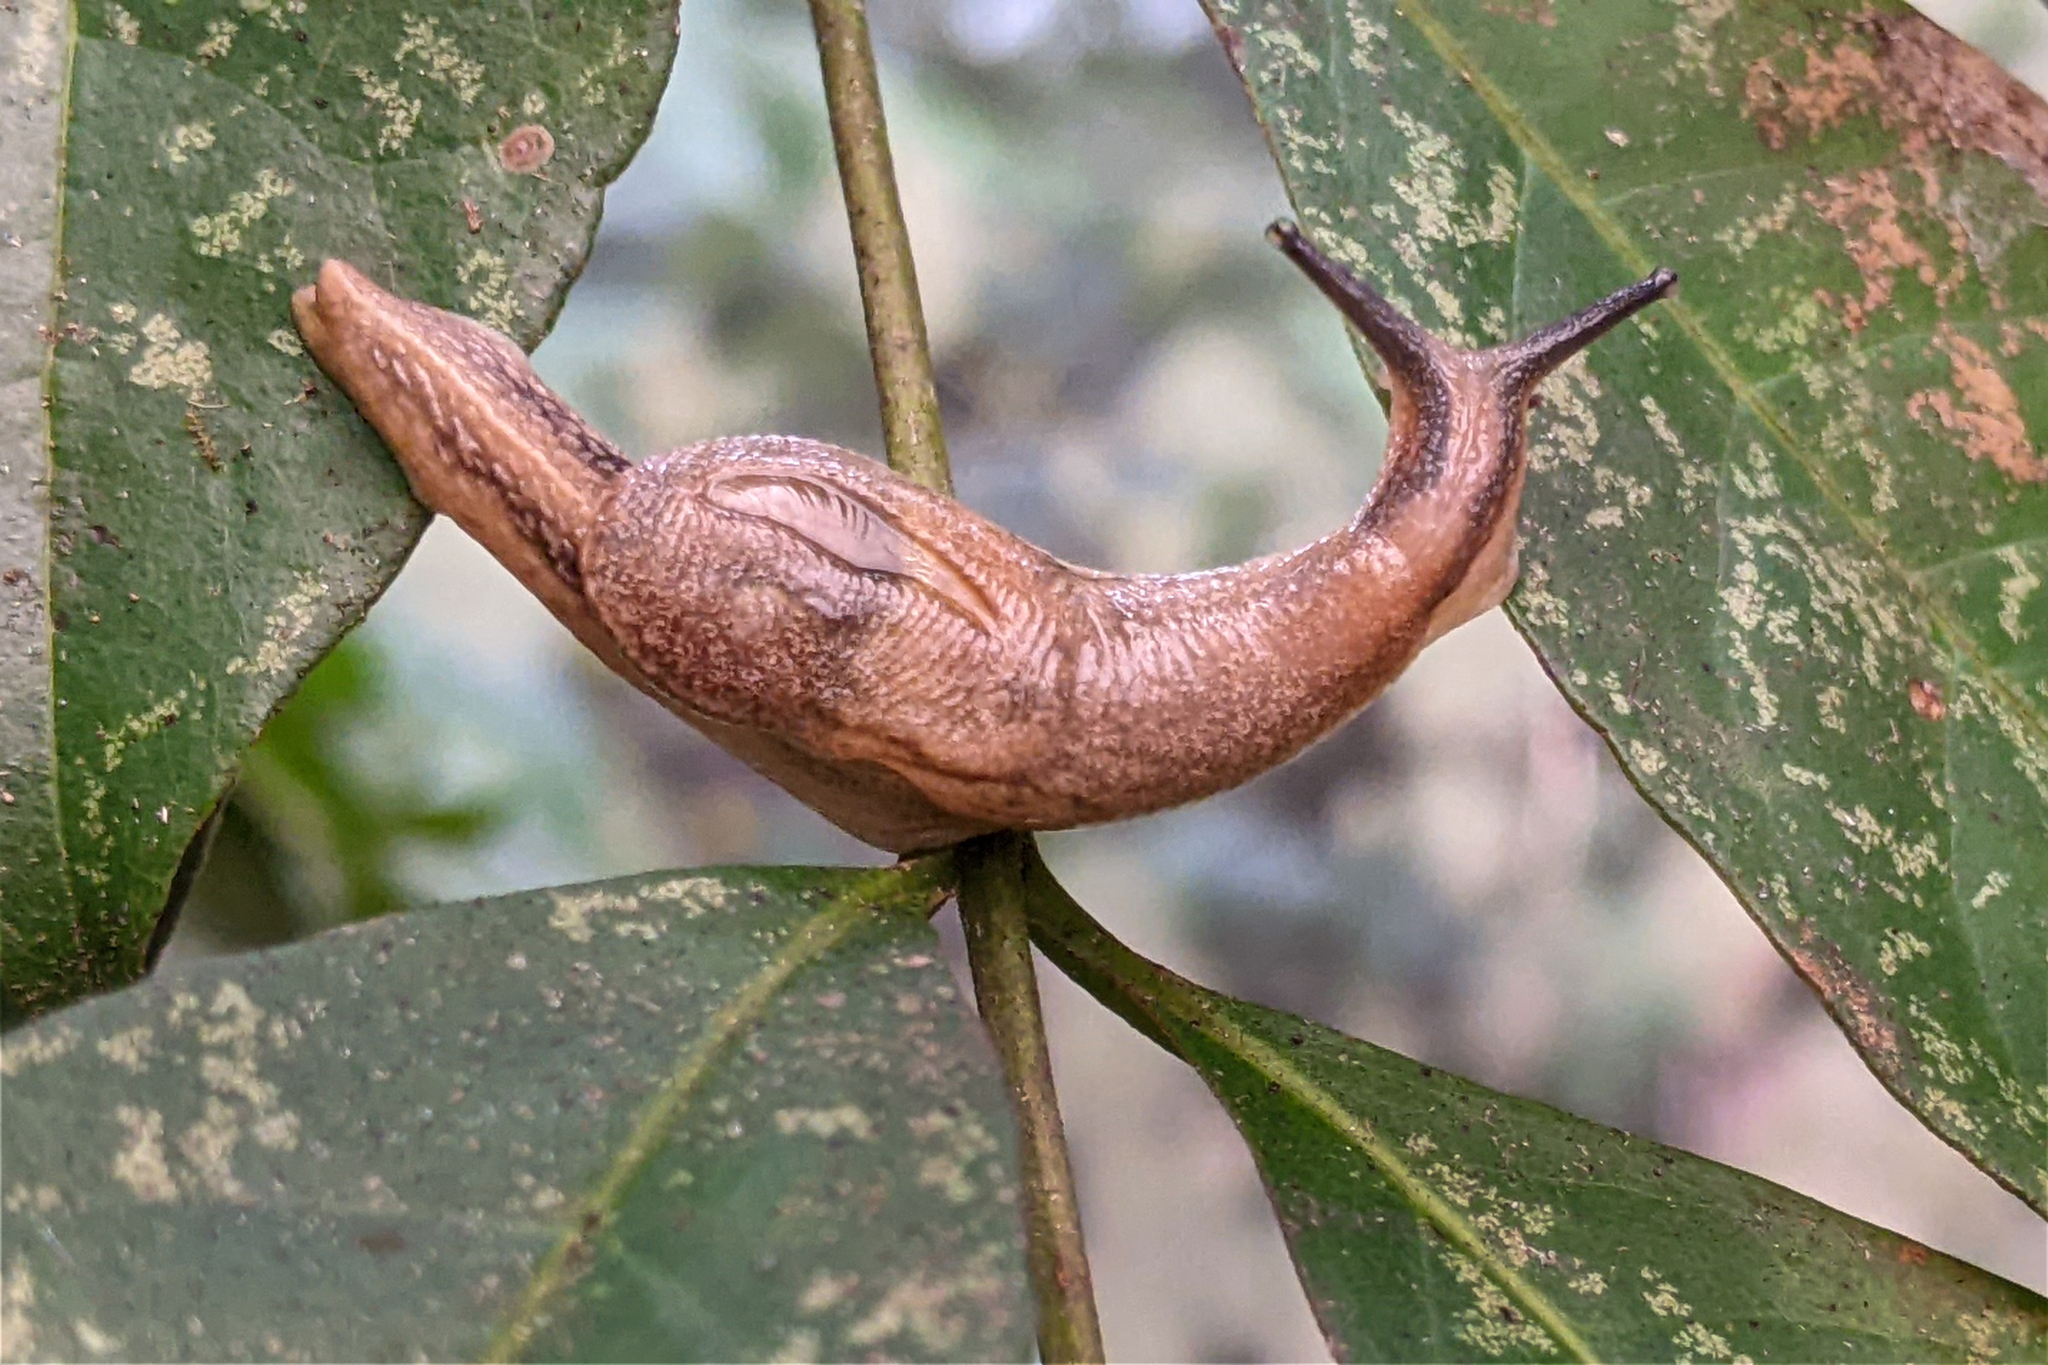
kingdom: Animalia
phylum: Mollusca
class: Gastropoda
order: Stylommatophora
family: Ariophantidae
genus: Parmarion
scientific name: Parmarion martensi
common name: Semi-slug
